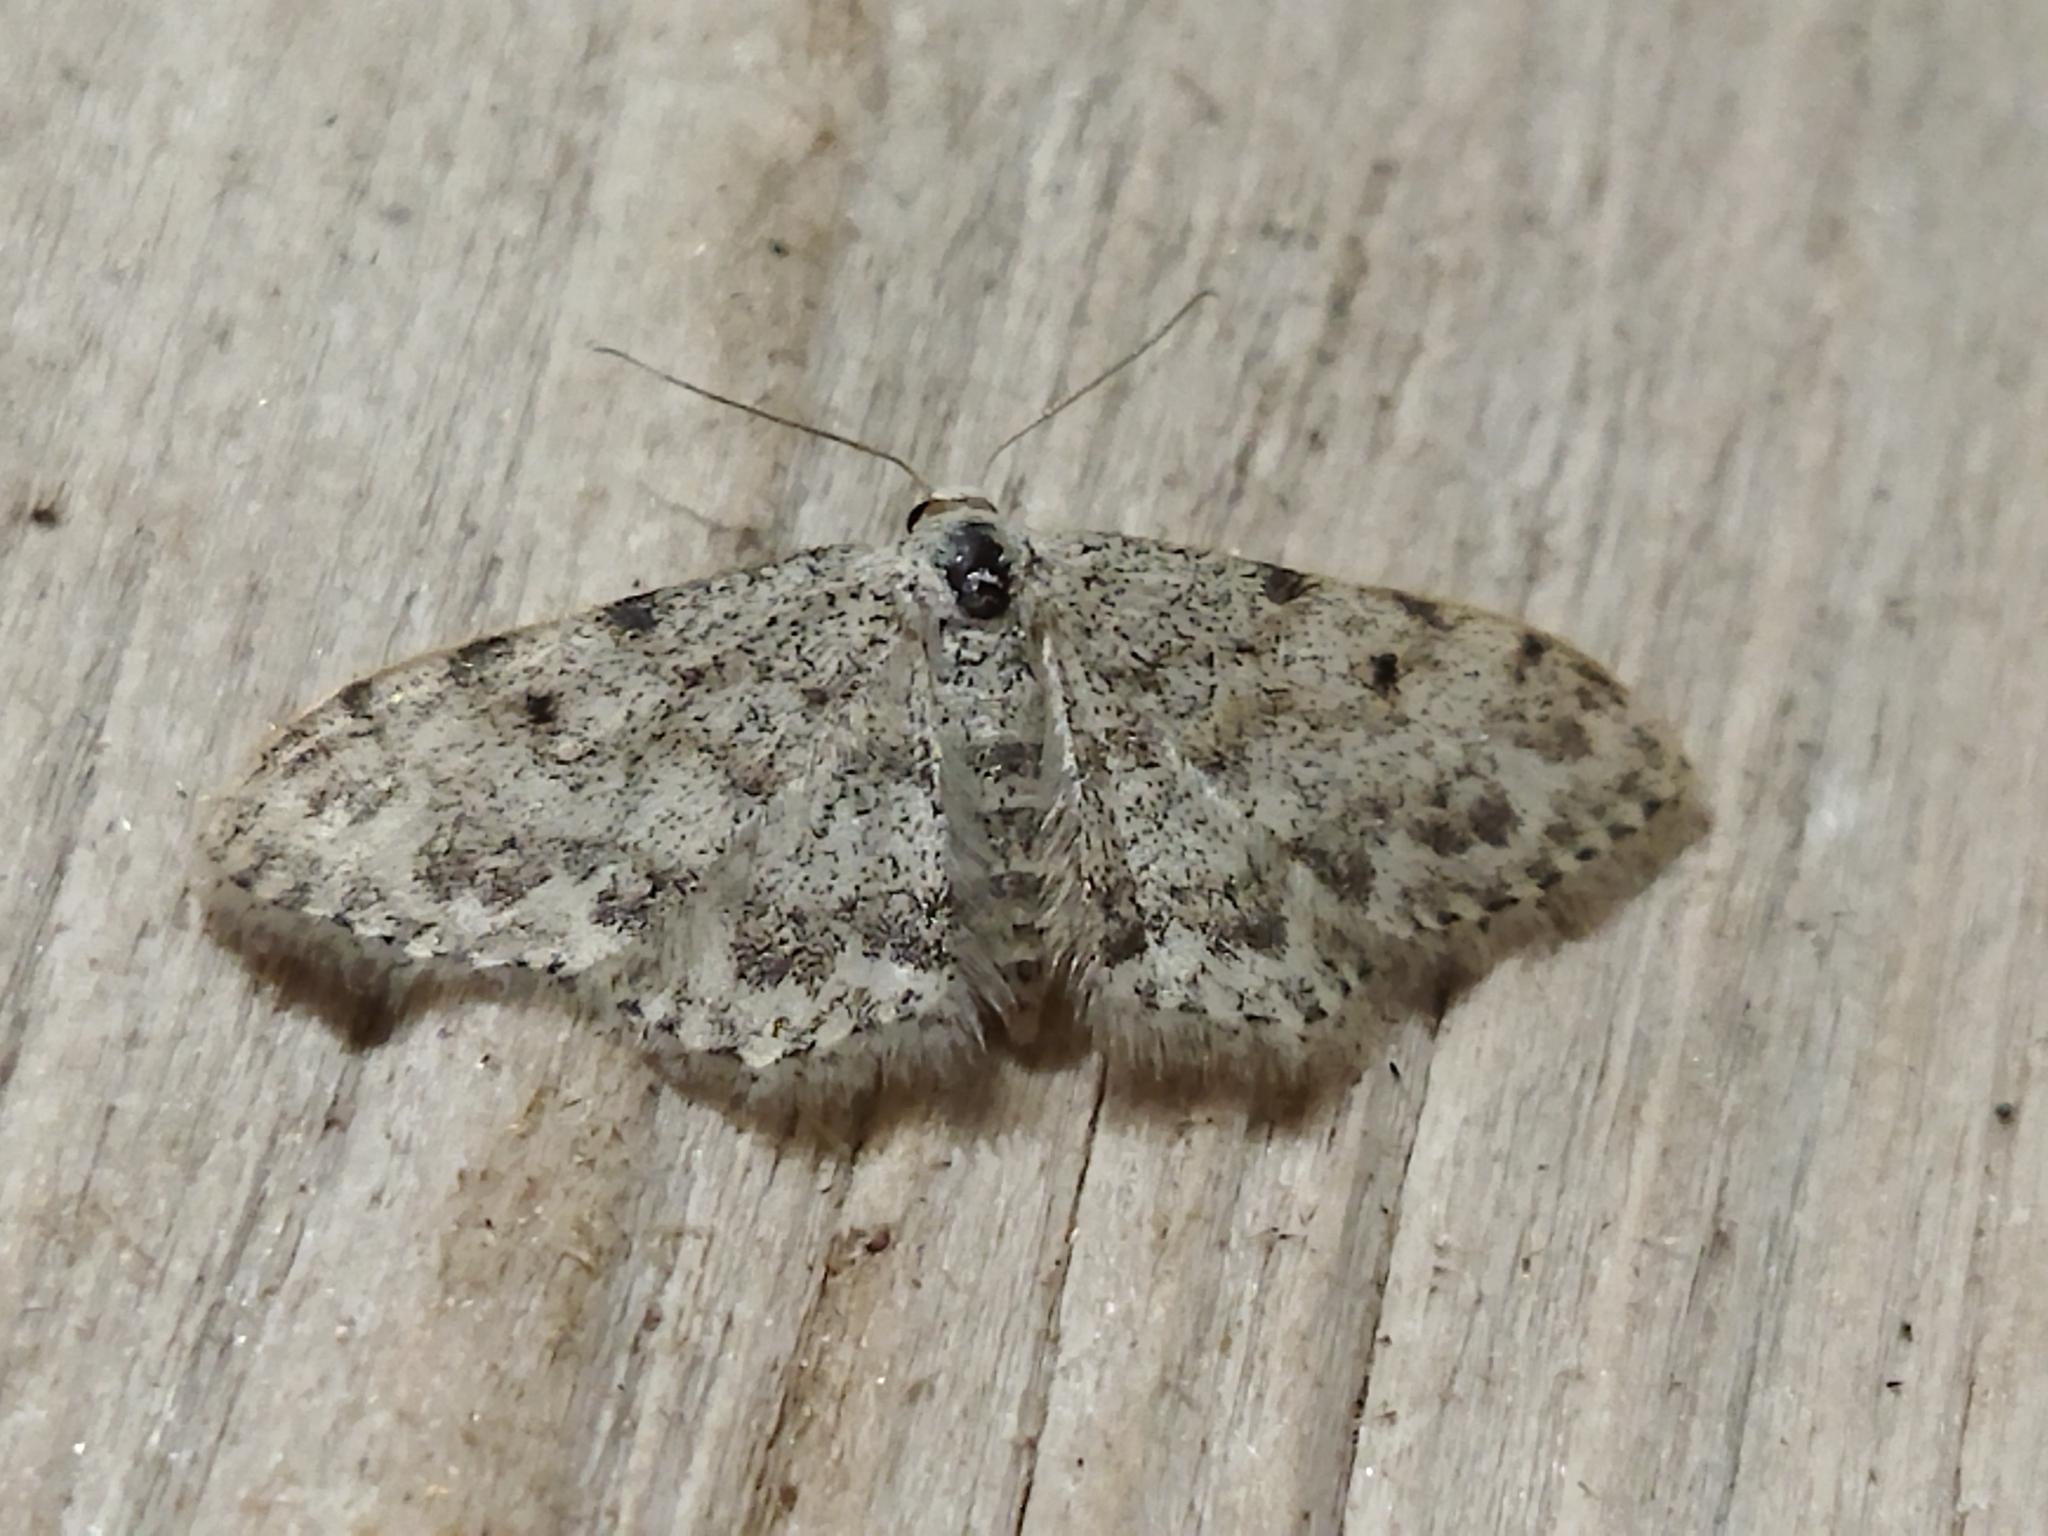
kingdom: Animalia
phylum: Arthropoda
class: Insecta
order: Lepidoptera
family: Geometridae
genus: Idaea
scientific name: Idaea camparia
